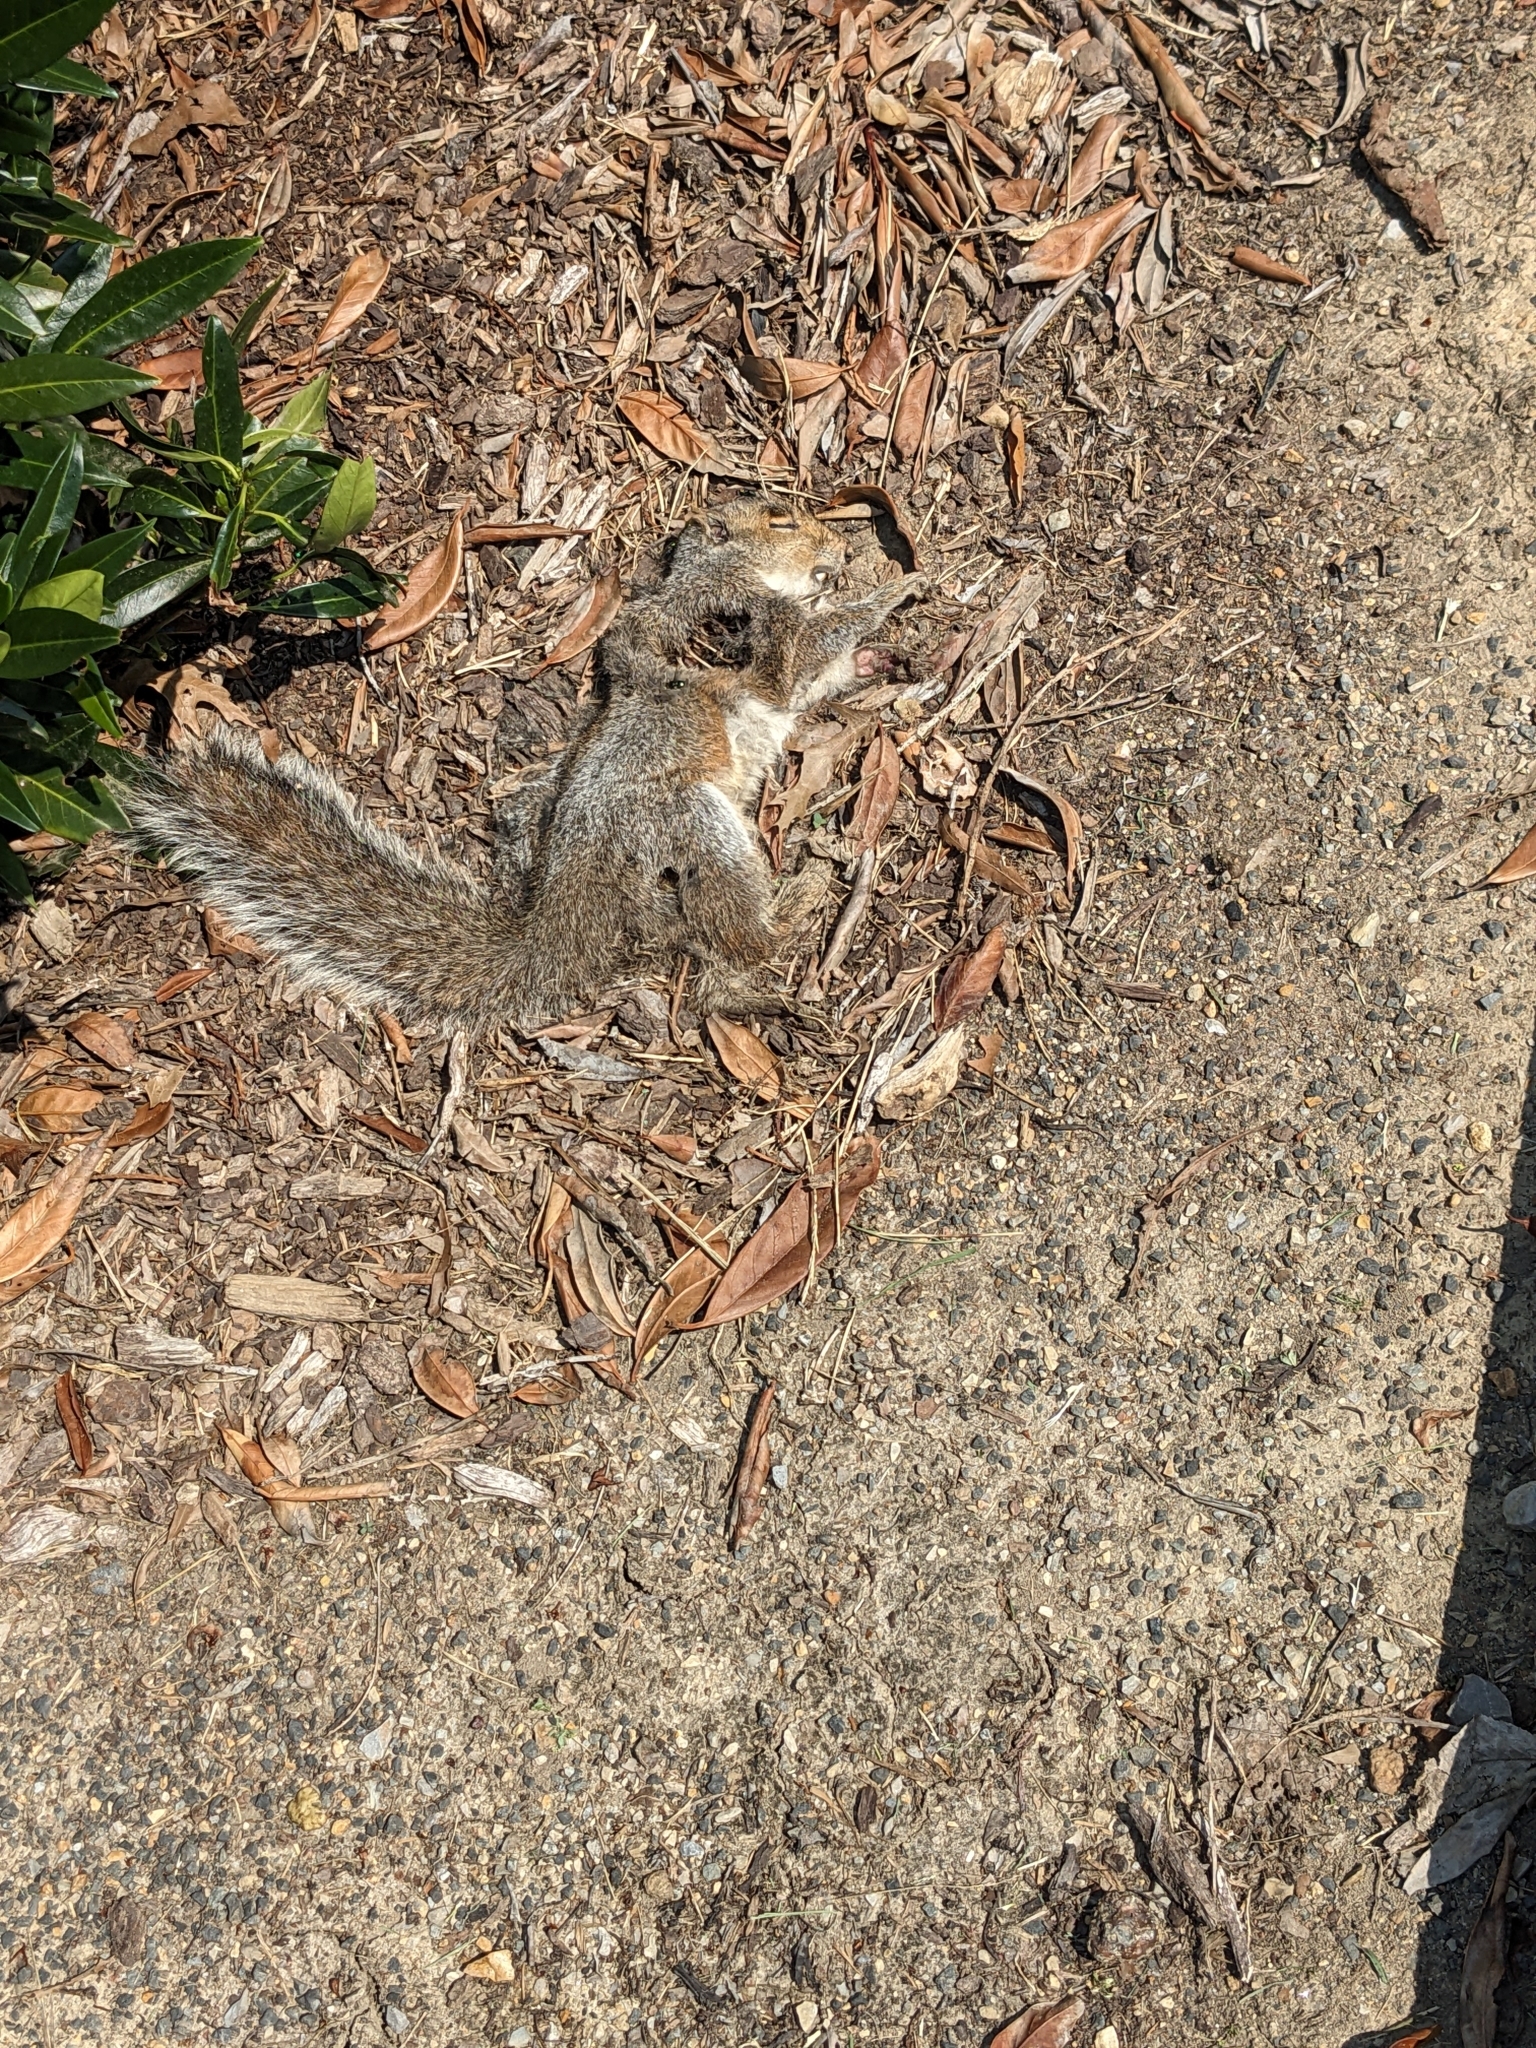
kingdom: Animalia
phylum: Chordata
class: Mammalia
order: Rodentia
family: Sciuridae
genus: Sciurus
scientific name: Sciurus carolinensis
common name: Eastern gray squirrel
